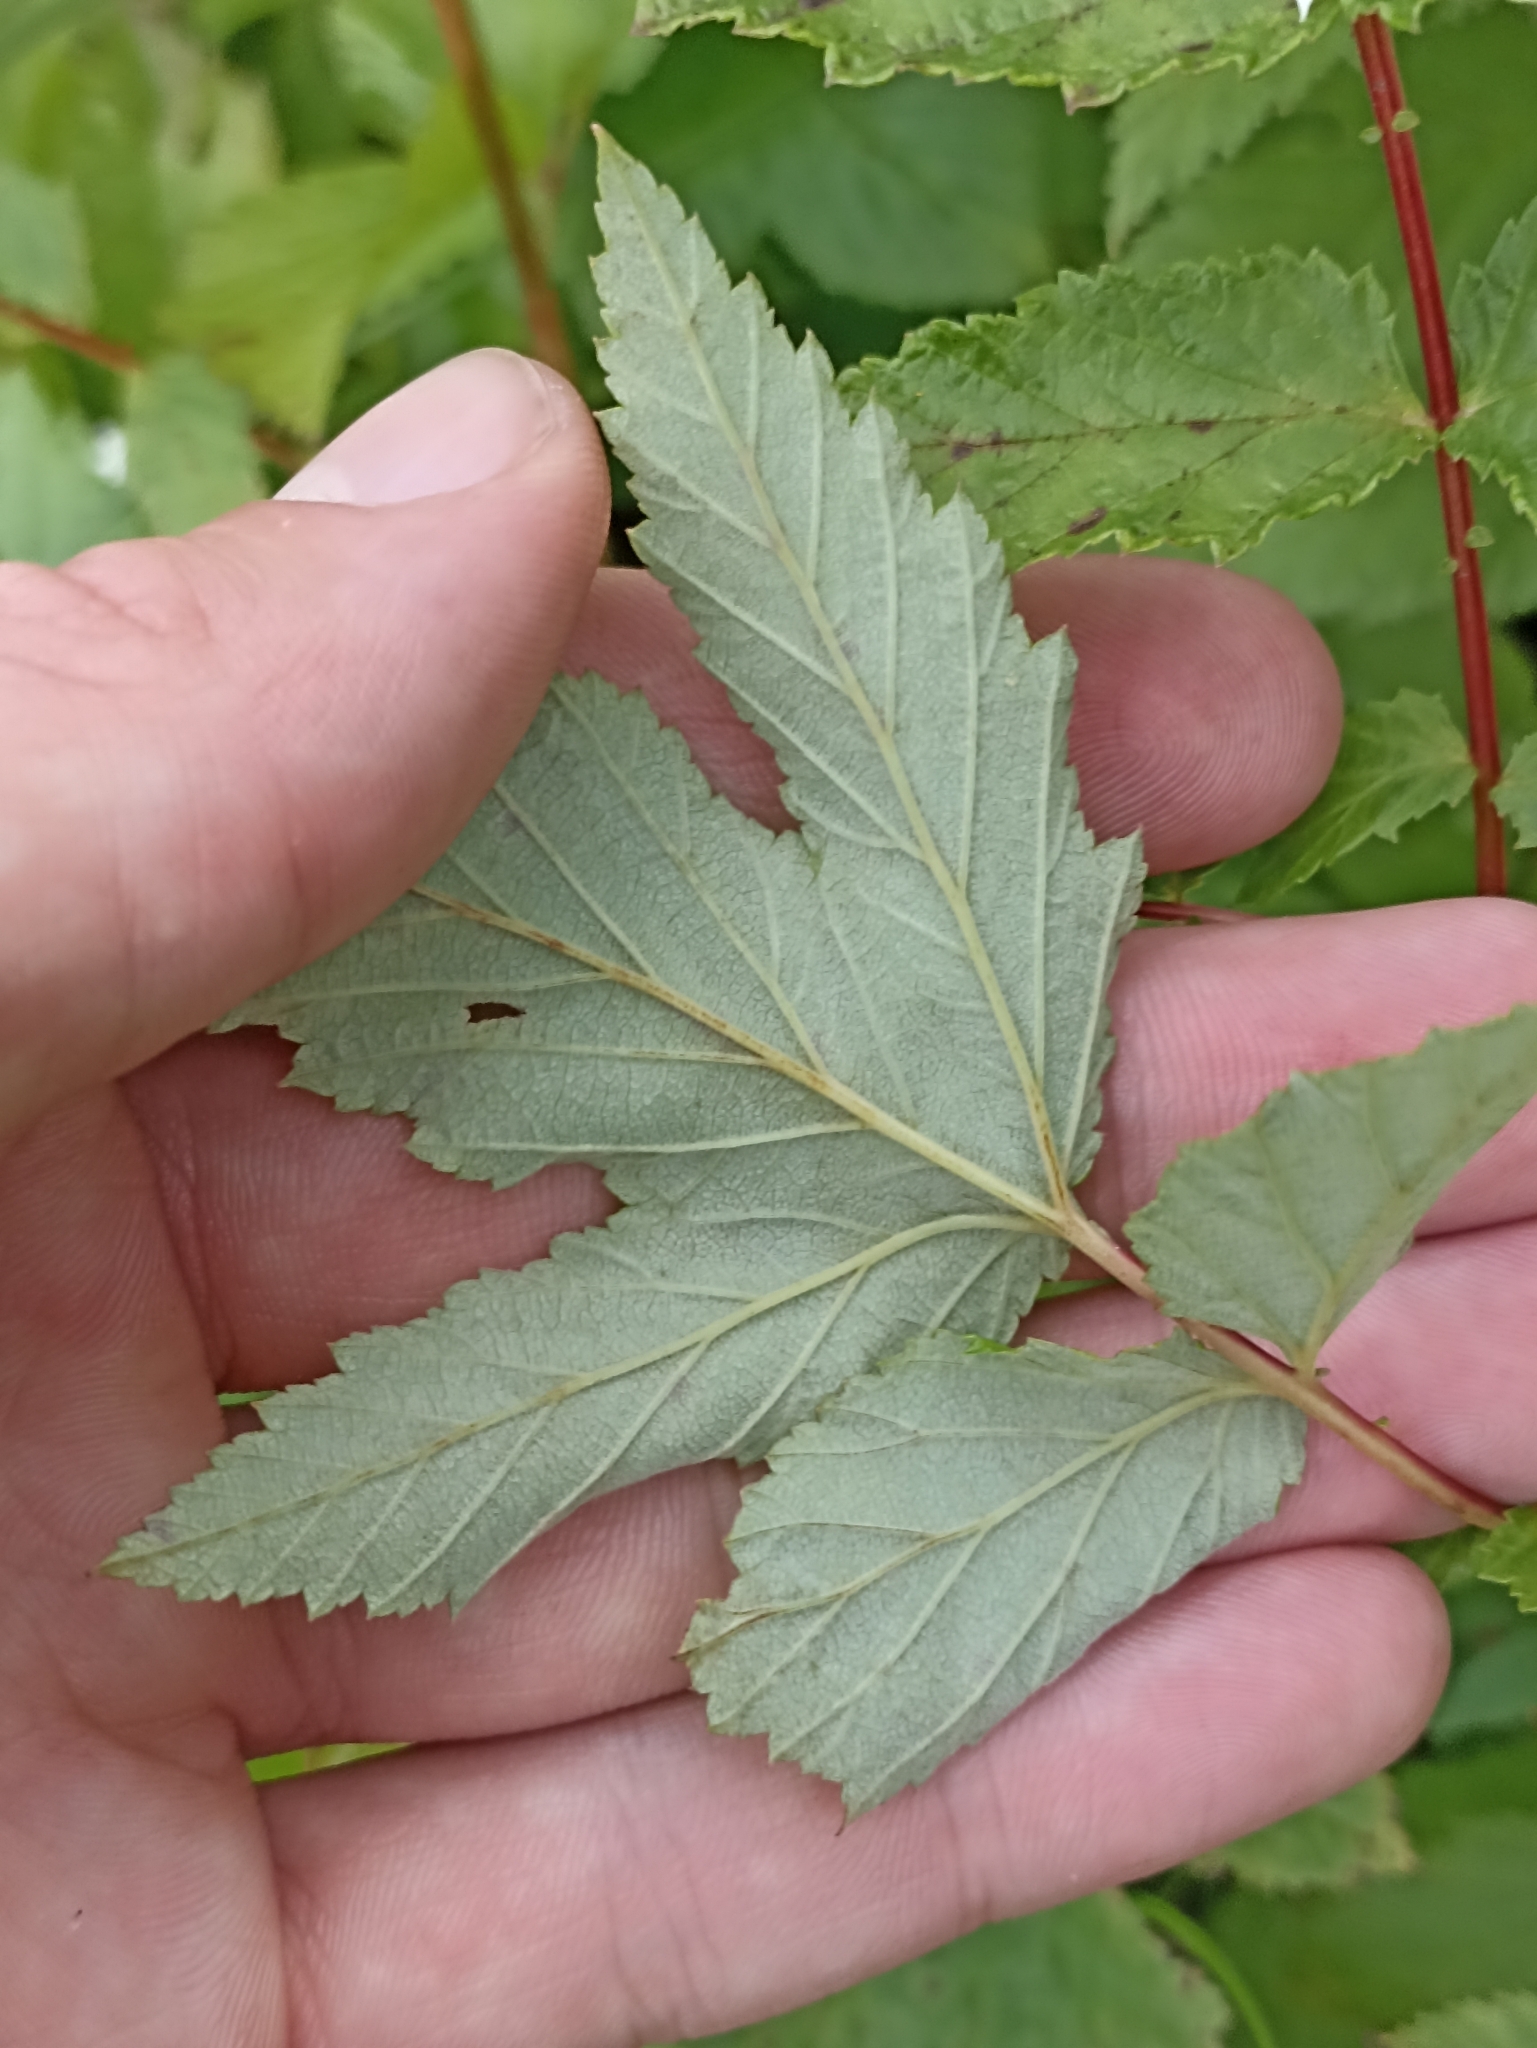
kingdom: Plantae
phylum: Tracheophyta
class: Magnoliopsida
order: Rosales
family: Rosaceae
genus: Filipendula
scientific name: Filipendula ulmaria
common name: Meadowsweet
